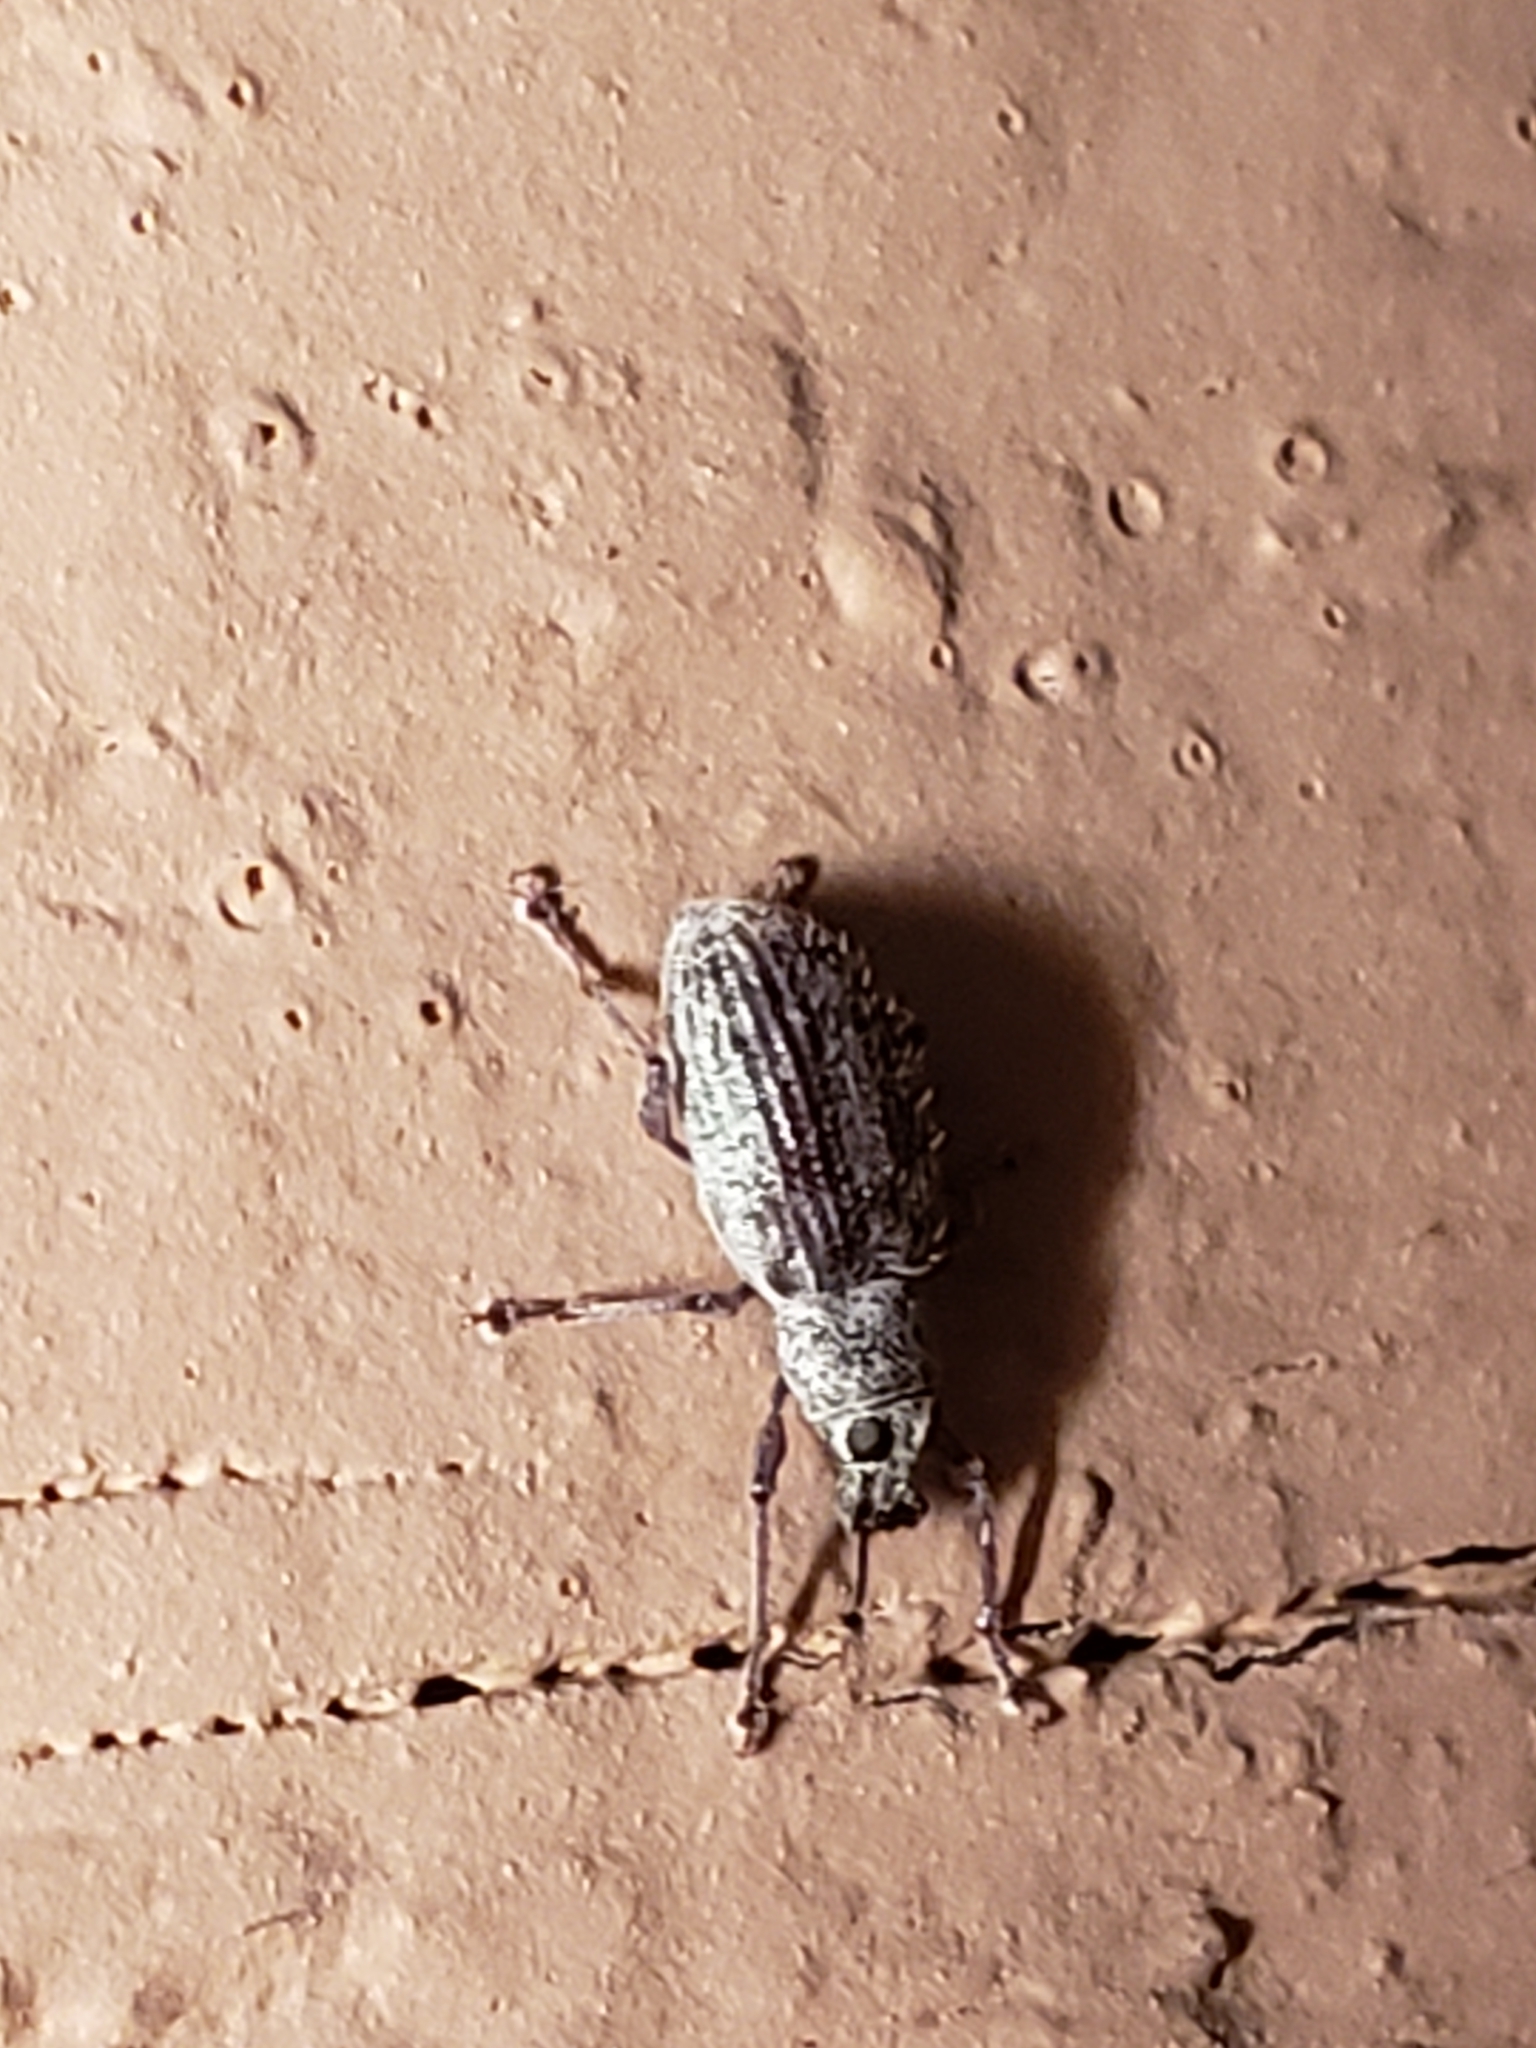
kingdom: Animalia
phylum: Arthropoda
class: Insecta
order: Coleoptera
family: Curculionidae
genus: Cyrtepistomus
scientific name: Cyrtepistomus castaneus
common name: Weevil
